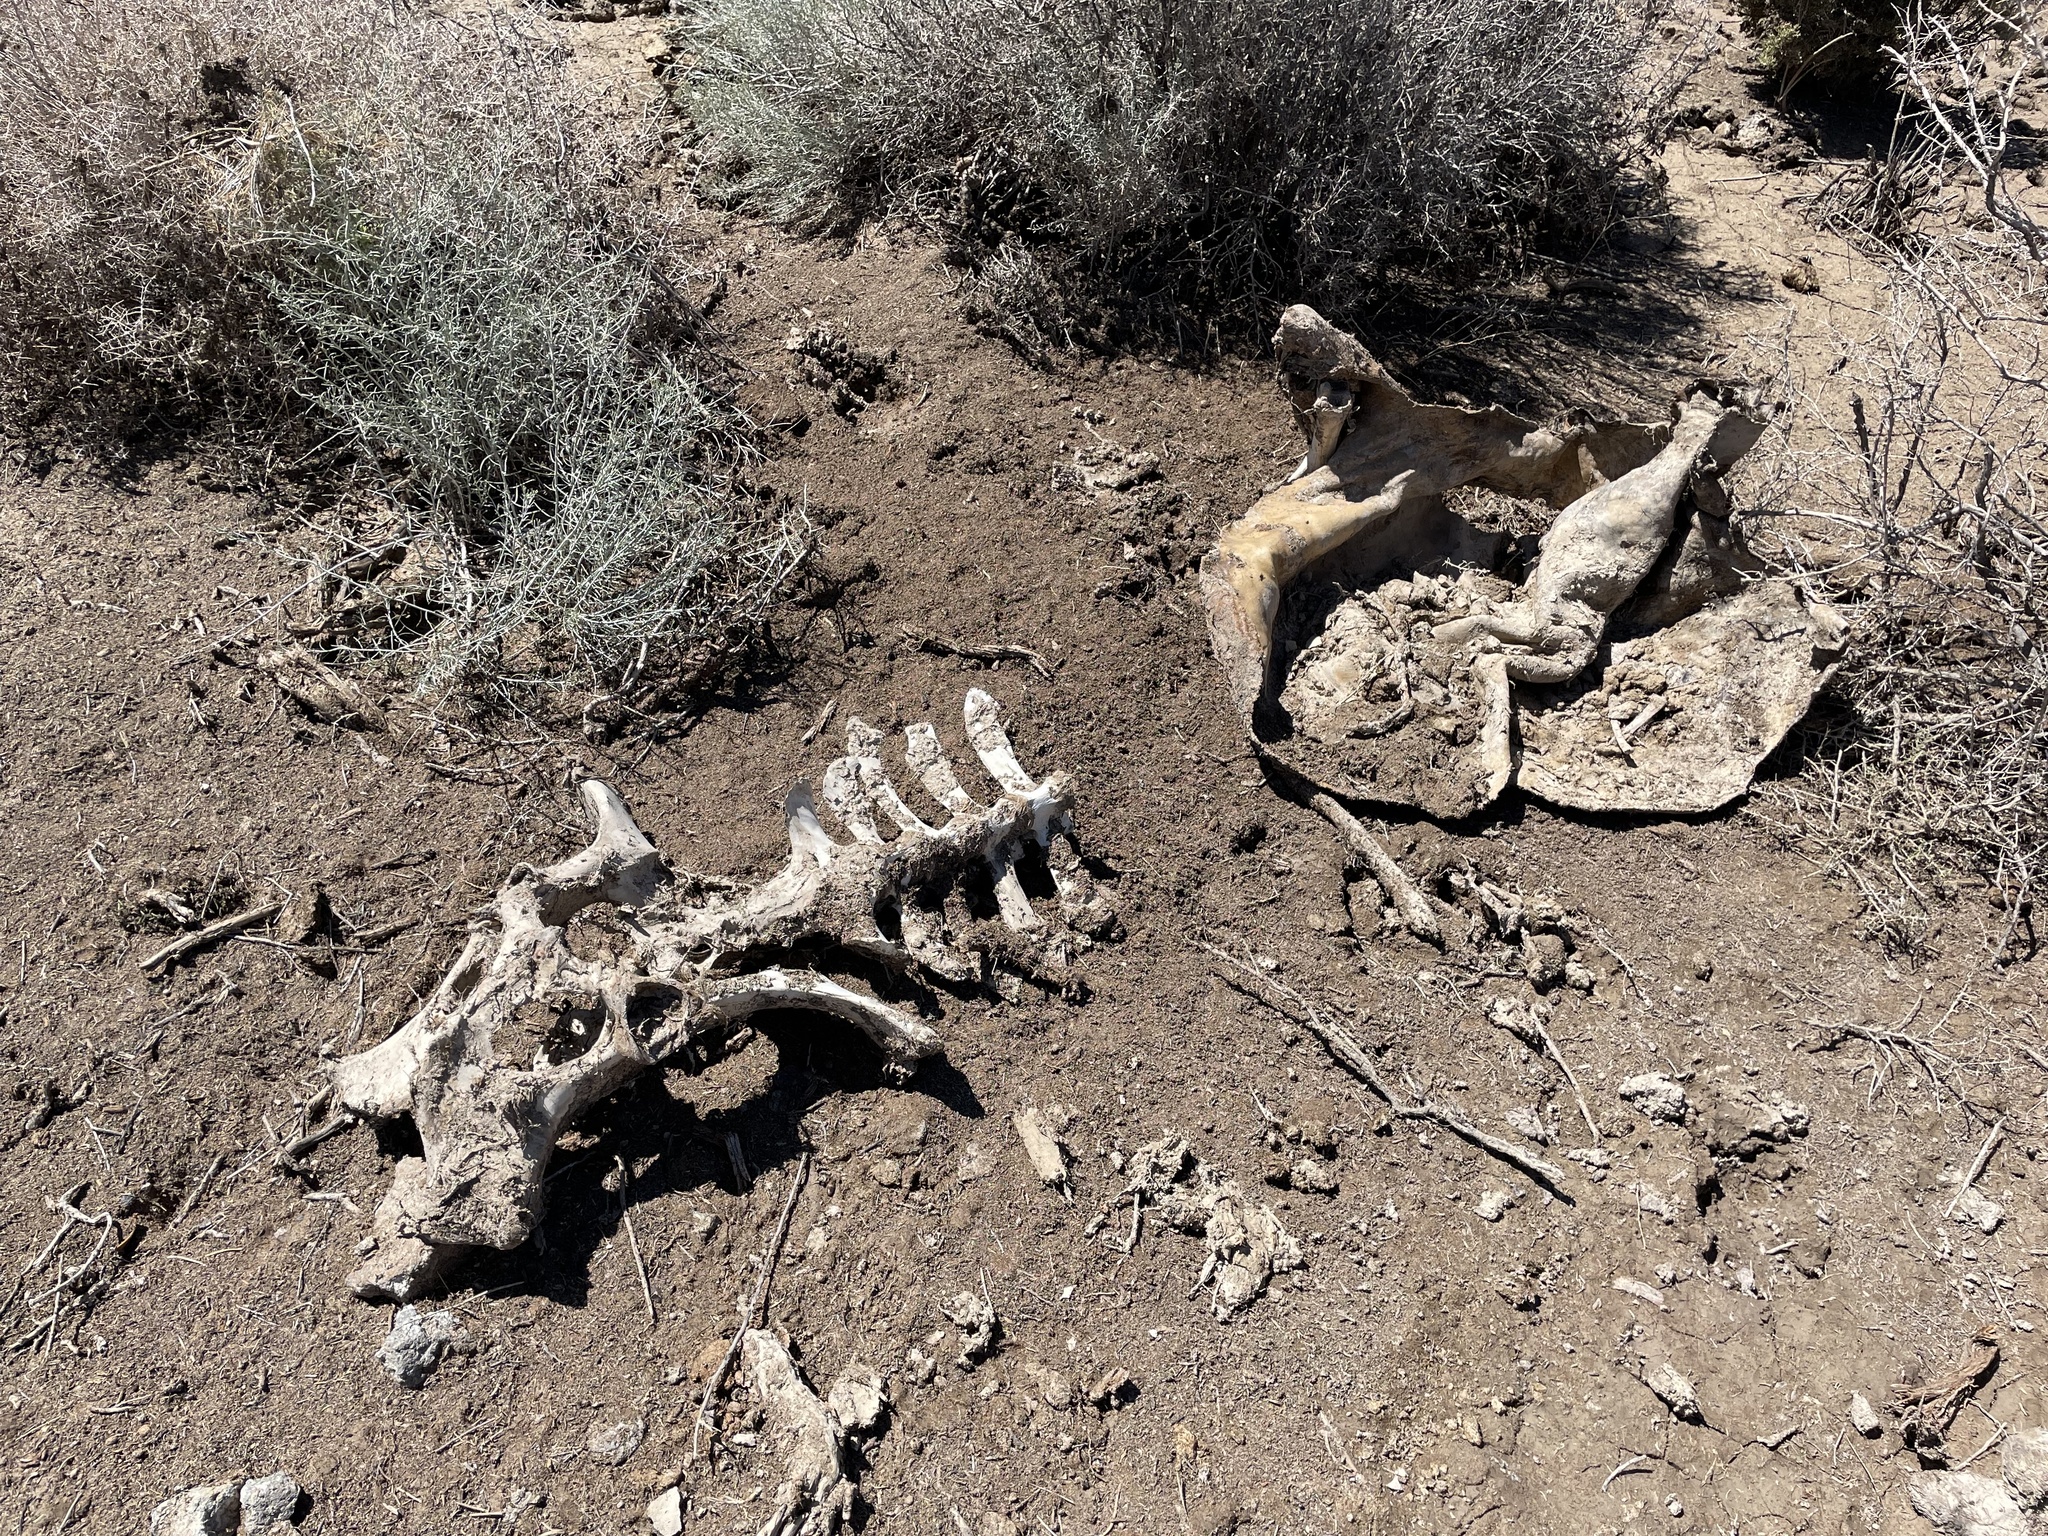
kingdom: Animalia
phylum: Chordata
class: Mammalia
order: Artiodactyla
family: Bovidae
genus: Bos
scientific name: Bos taurus
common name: Domesticated cattle
